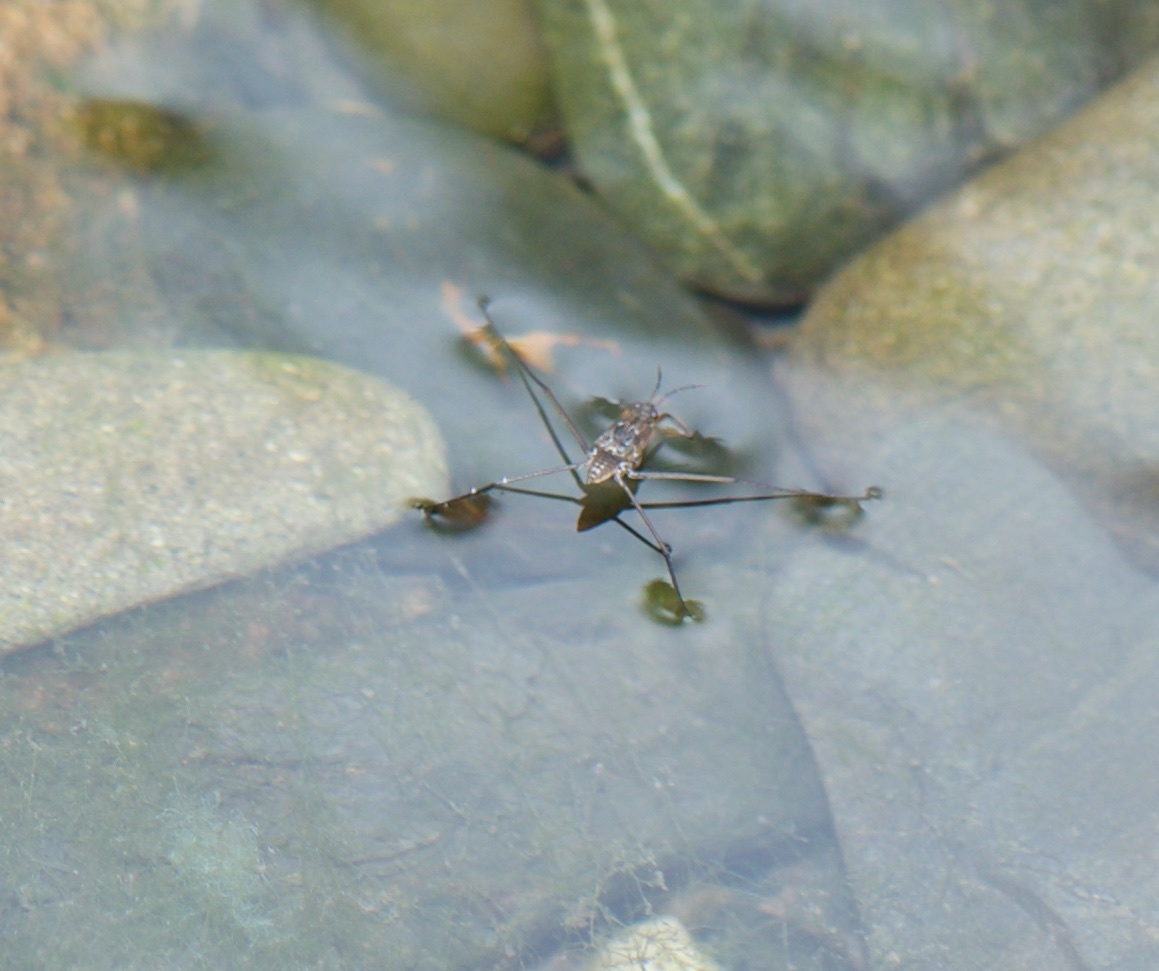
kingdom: Animalia
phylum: Arthropoda
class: Insecta
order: Hemiptera
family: Gerridae
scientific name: Gerridae
